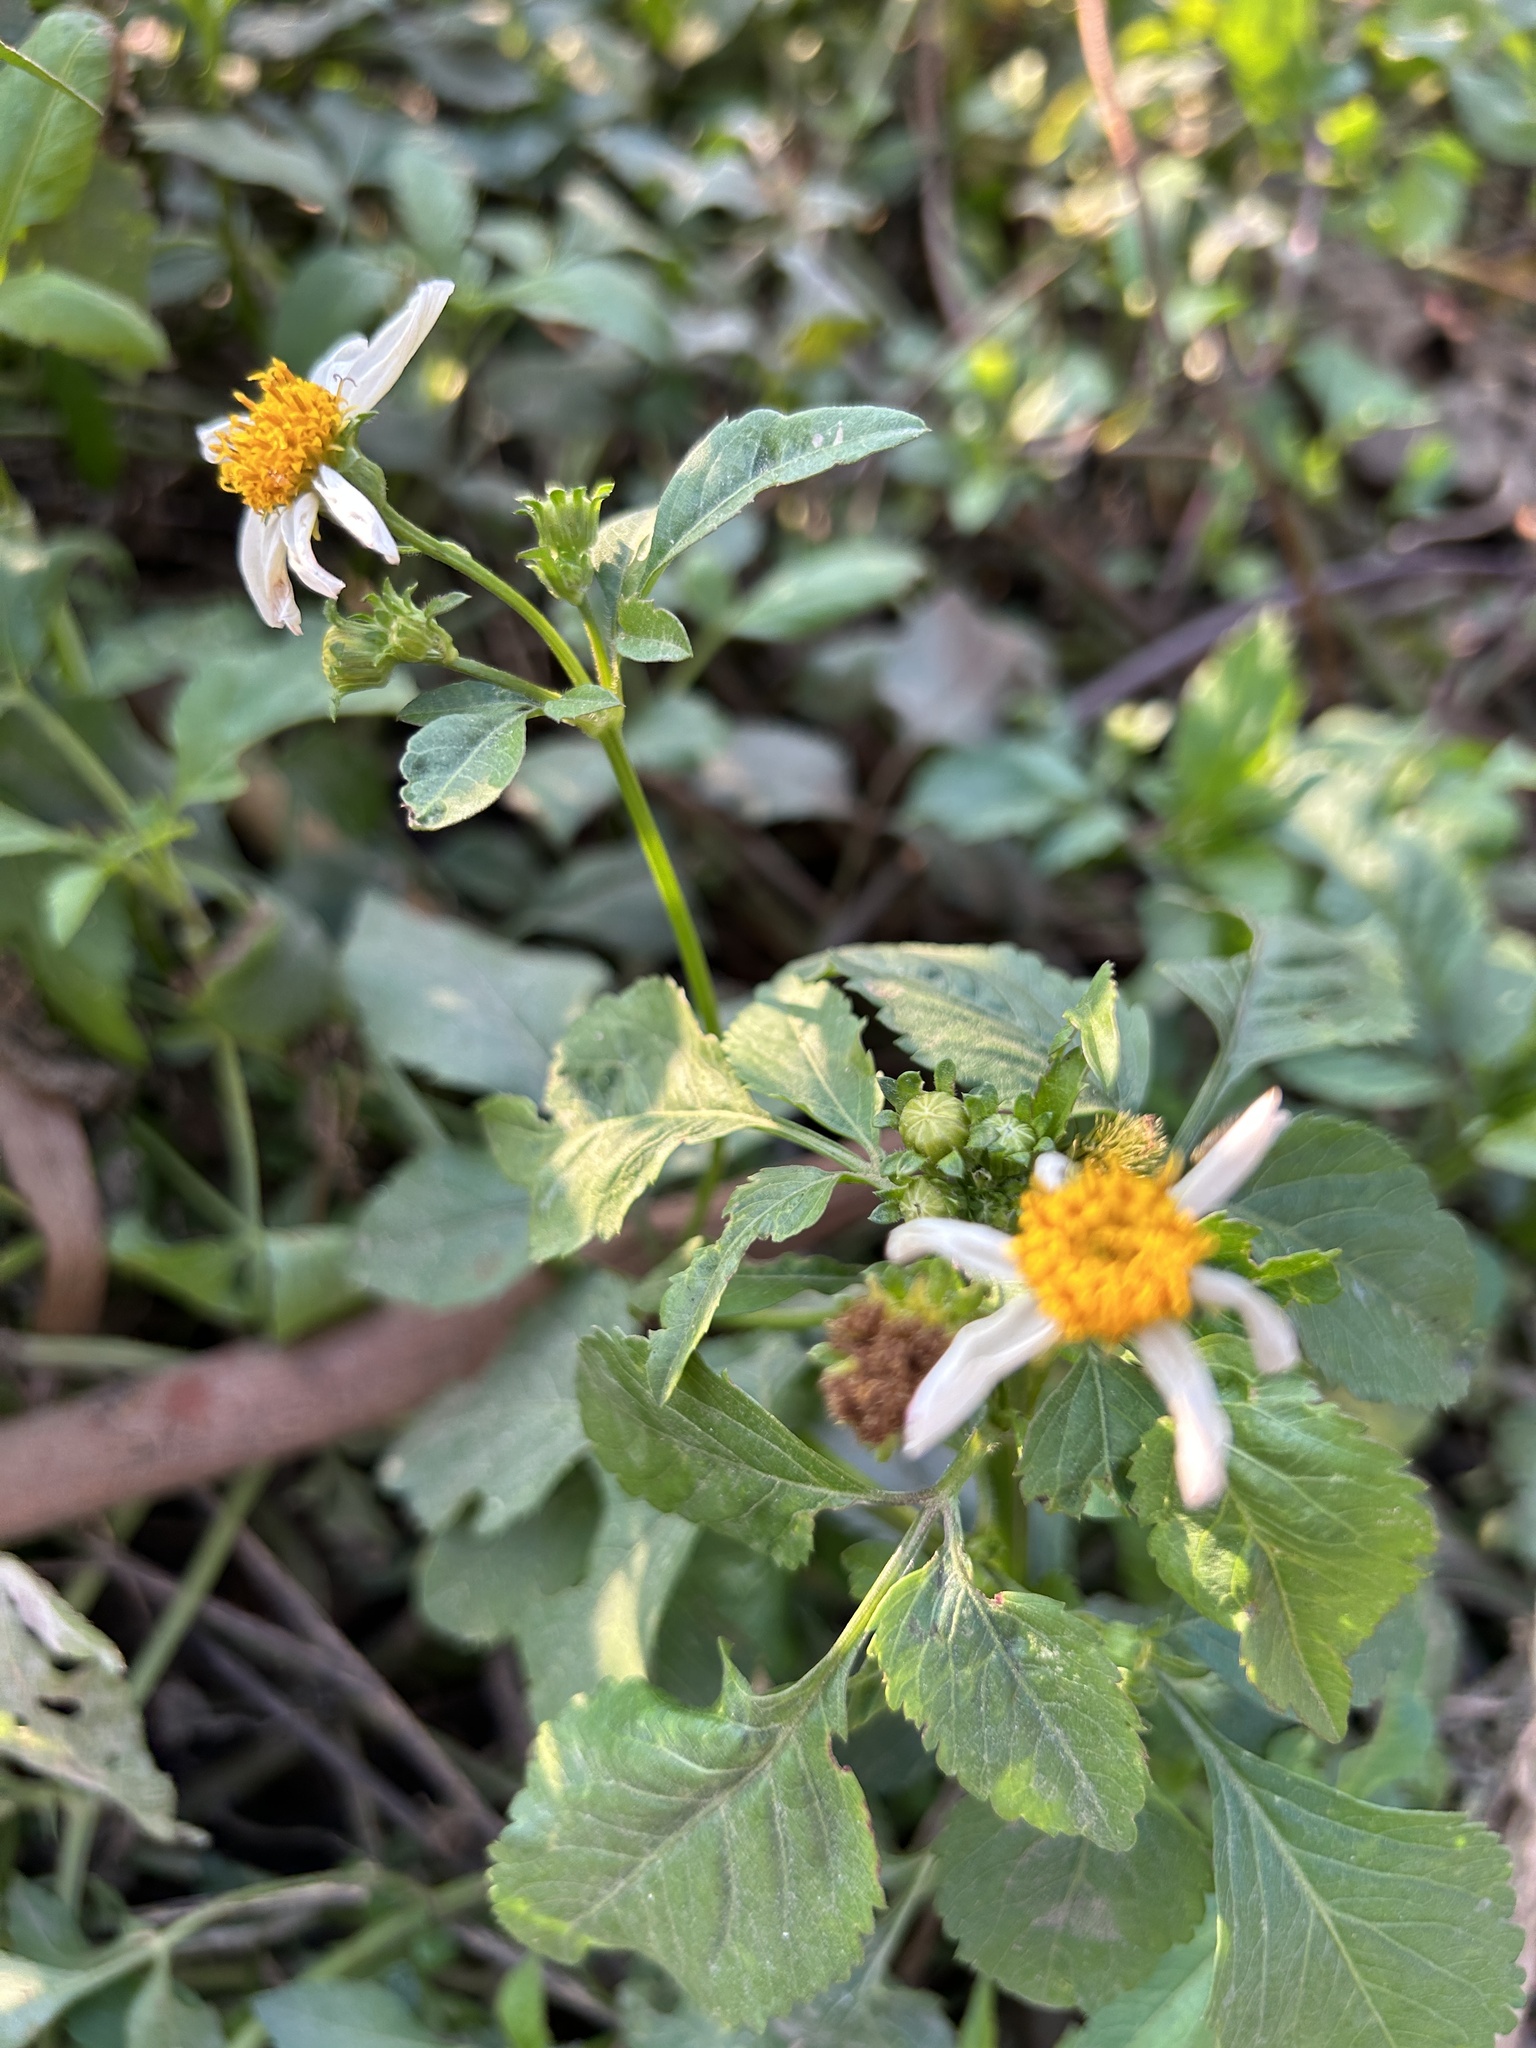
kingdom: Plantae
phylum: Tracheophyta
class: Magnoliopsida
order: Asterales
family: Asteraceae
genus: Bidens
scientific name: Bidens alba
